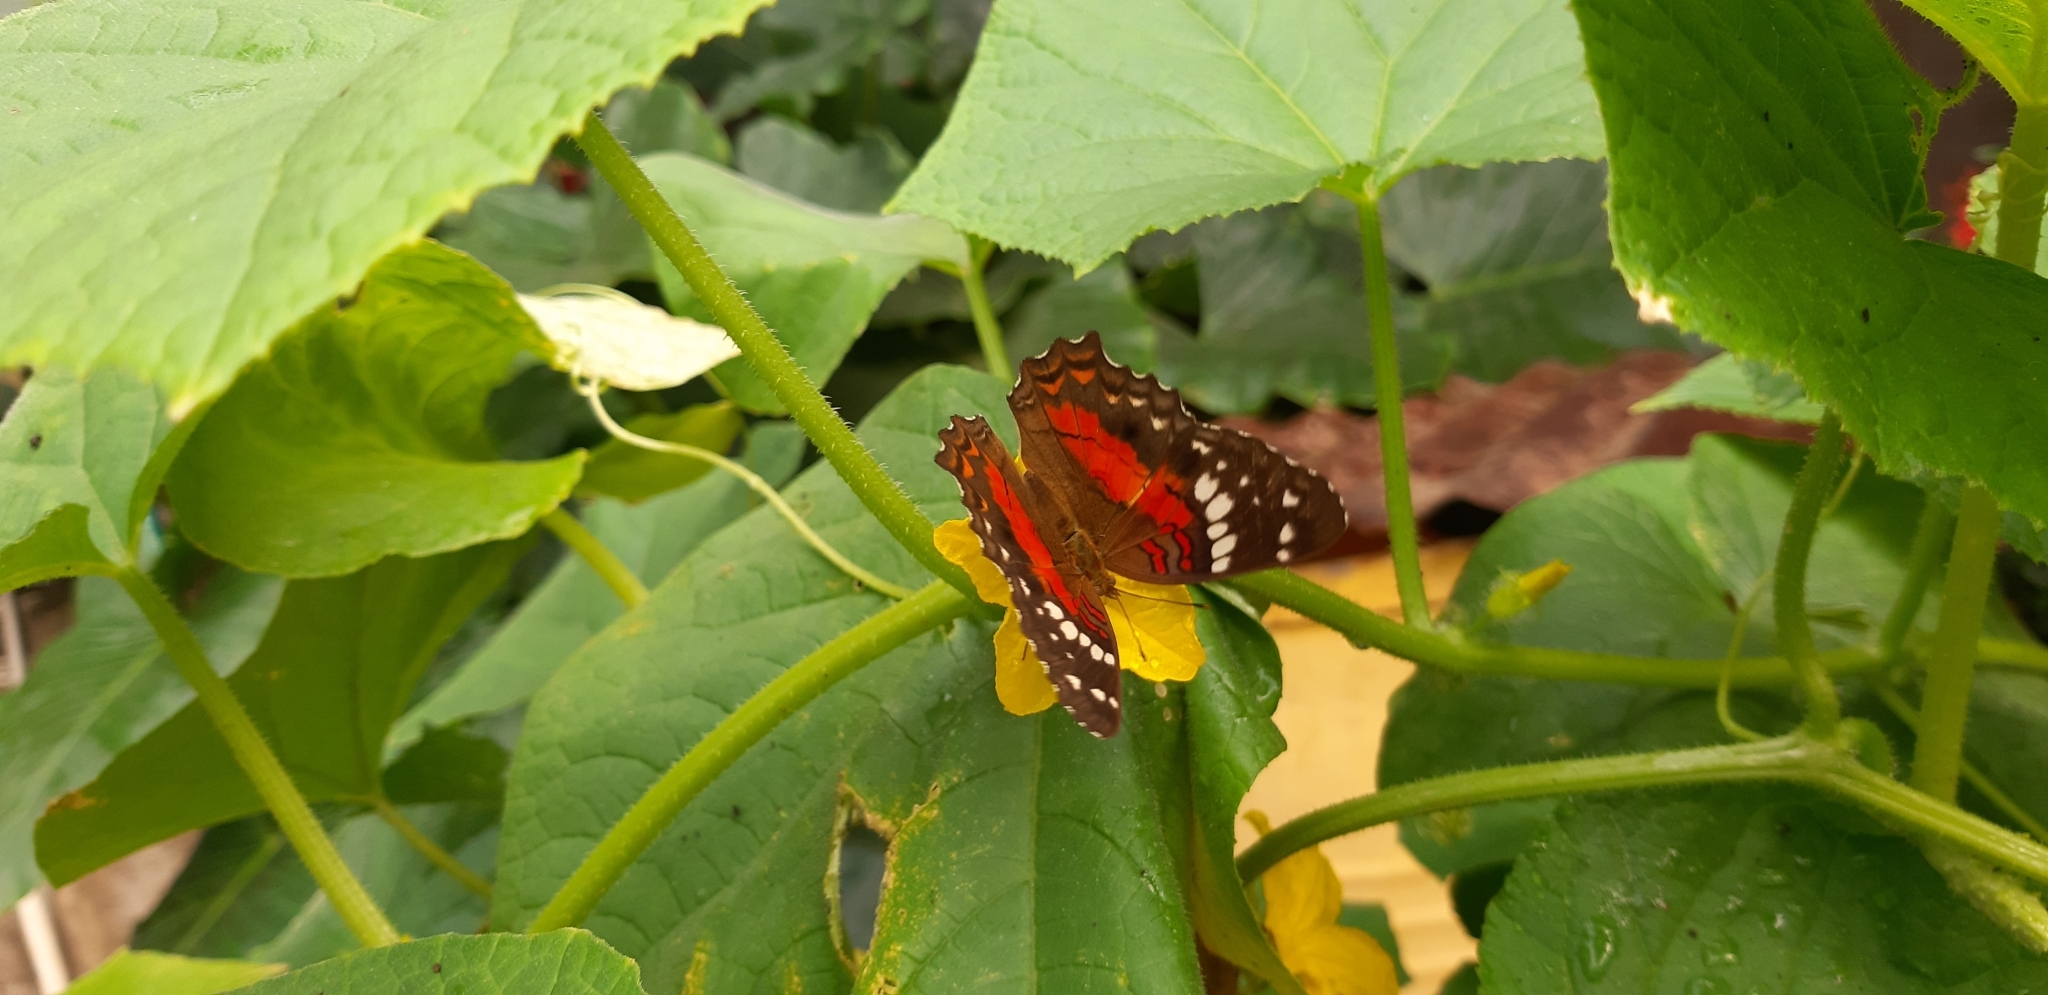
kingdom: Animalia
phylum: Arthropoda
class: Insecta
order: Lepidoptera
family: Nymphalidae
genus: Anartia
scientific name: Anartia amathea
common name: Red peacock
